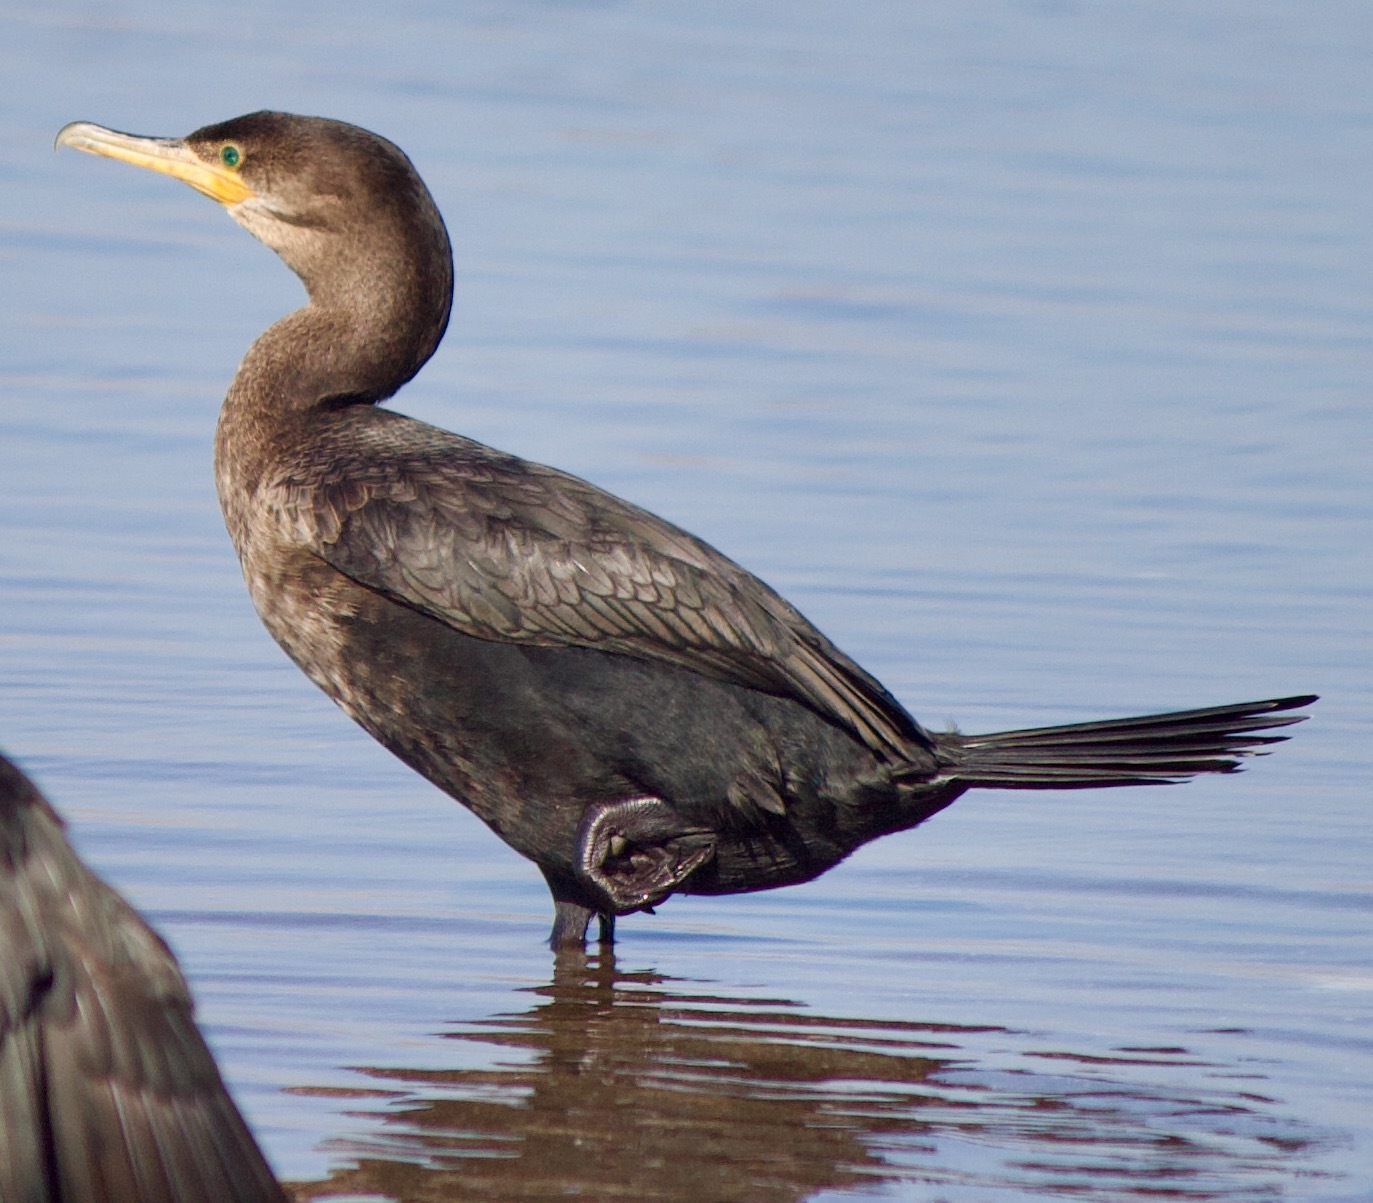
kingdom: Animalia
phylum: Chordata
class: Aves
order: Suliformes
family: Phalacrocoracidae
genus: Phalacrocorax
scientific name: Phalacrocorax brasilianus
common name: Neotropic cormorant
